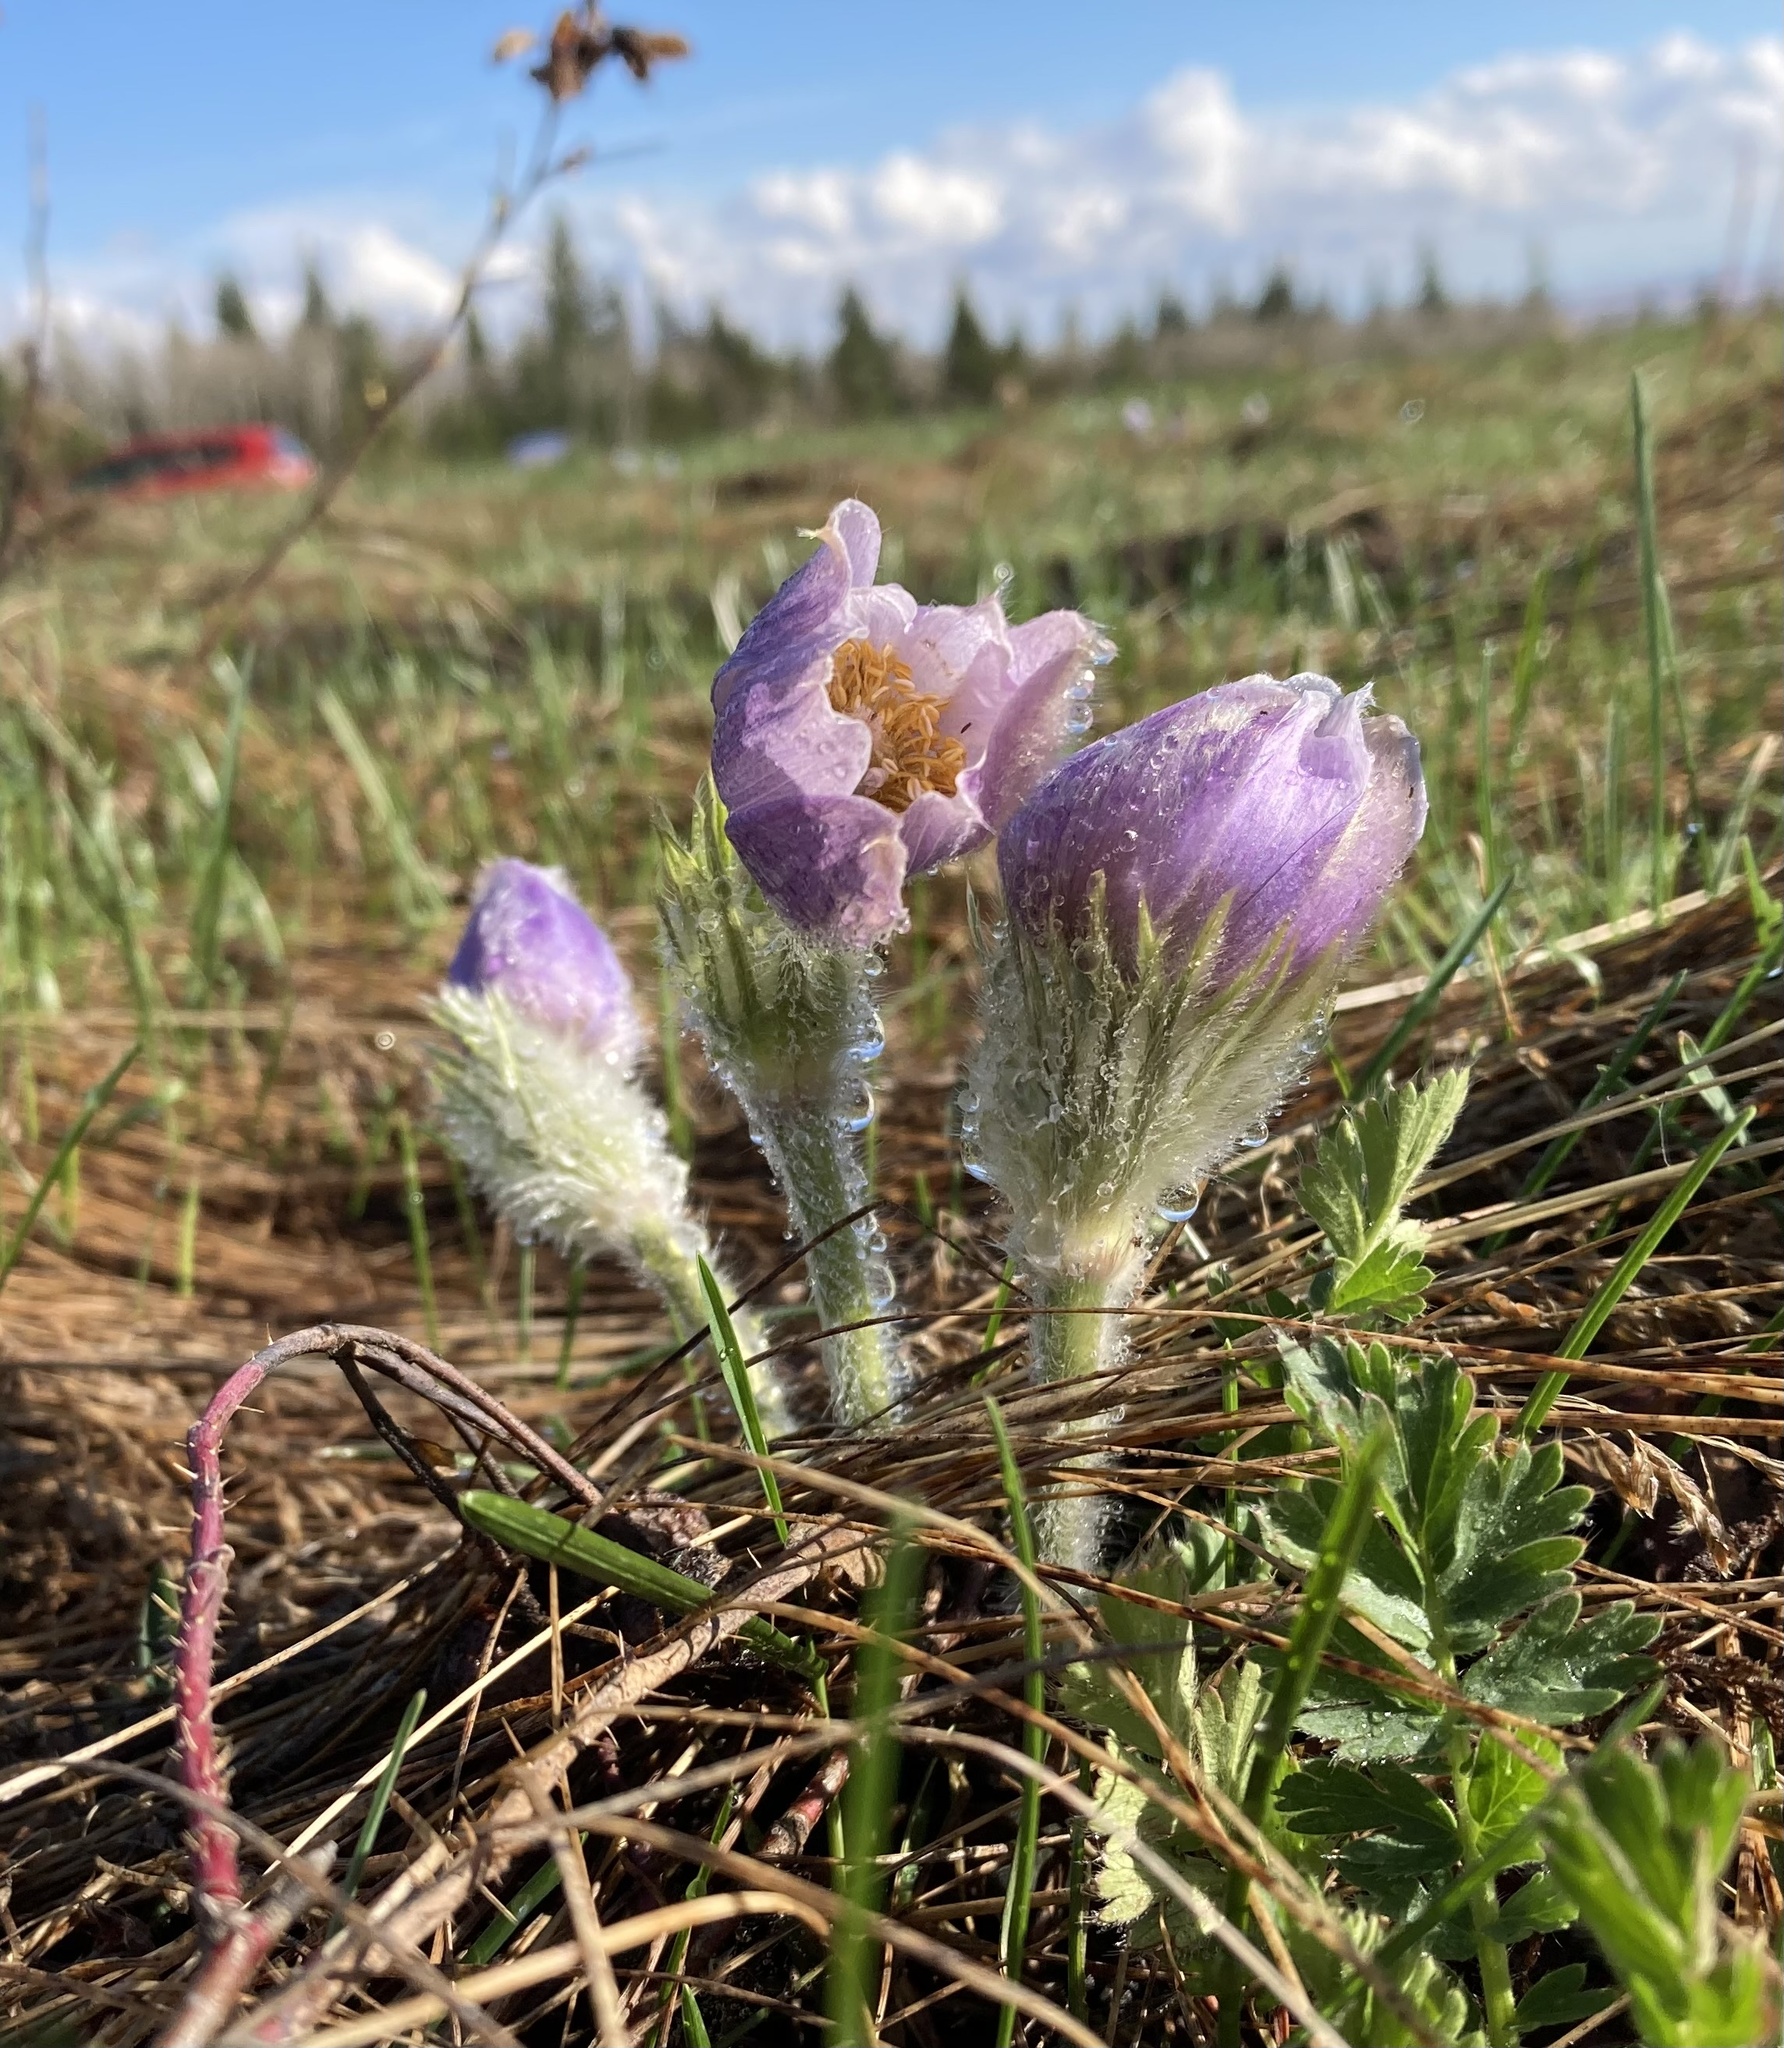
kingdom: Plantae
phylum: Tracheophyta
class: Magnoliopsida
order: Ranunculales
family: Ranunculaceae
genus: Pulsatilla
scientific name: Pulsatilla nuttalliana
